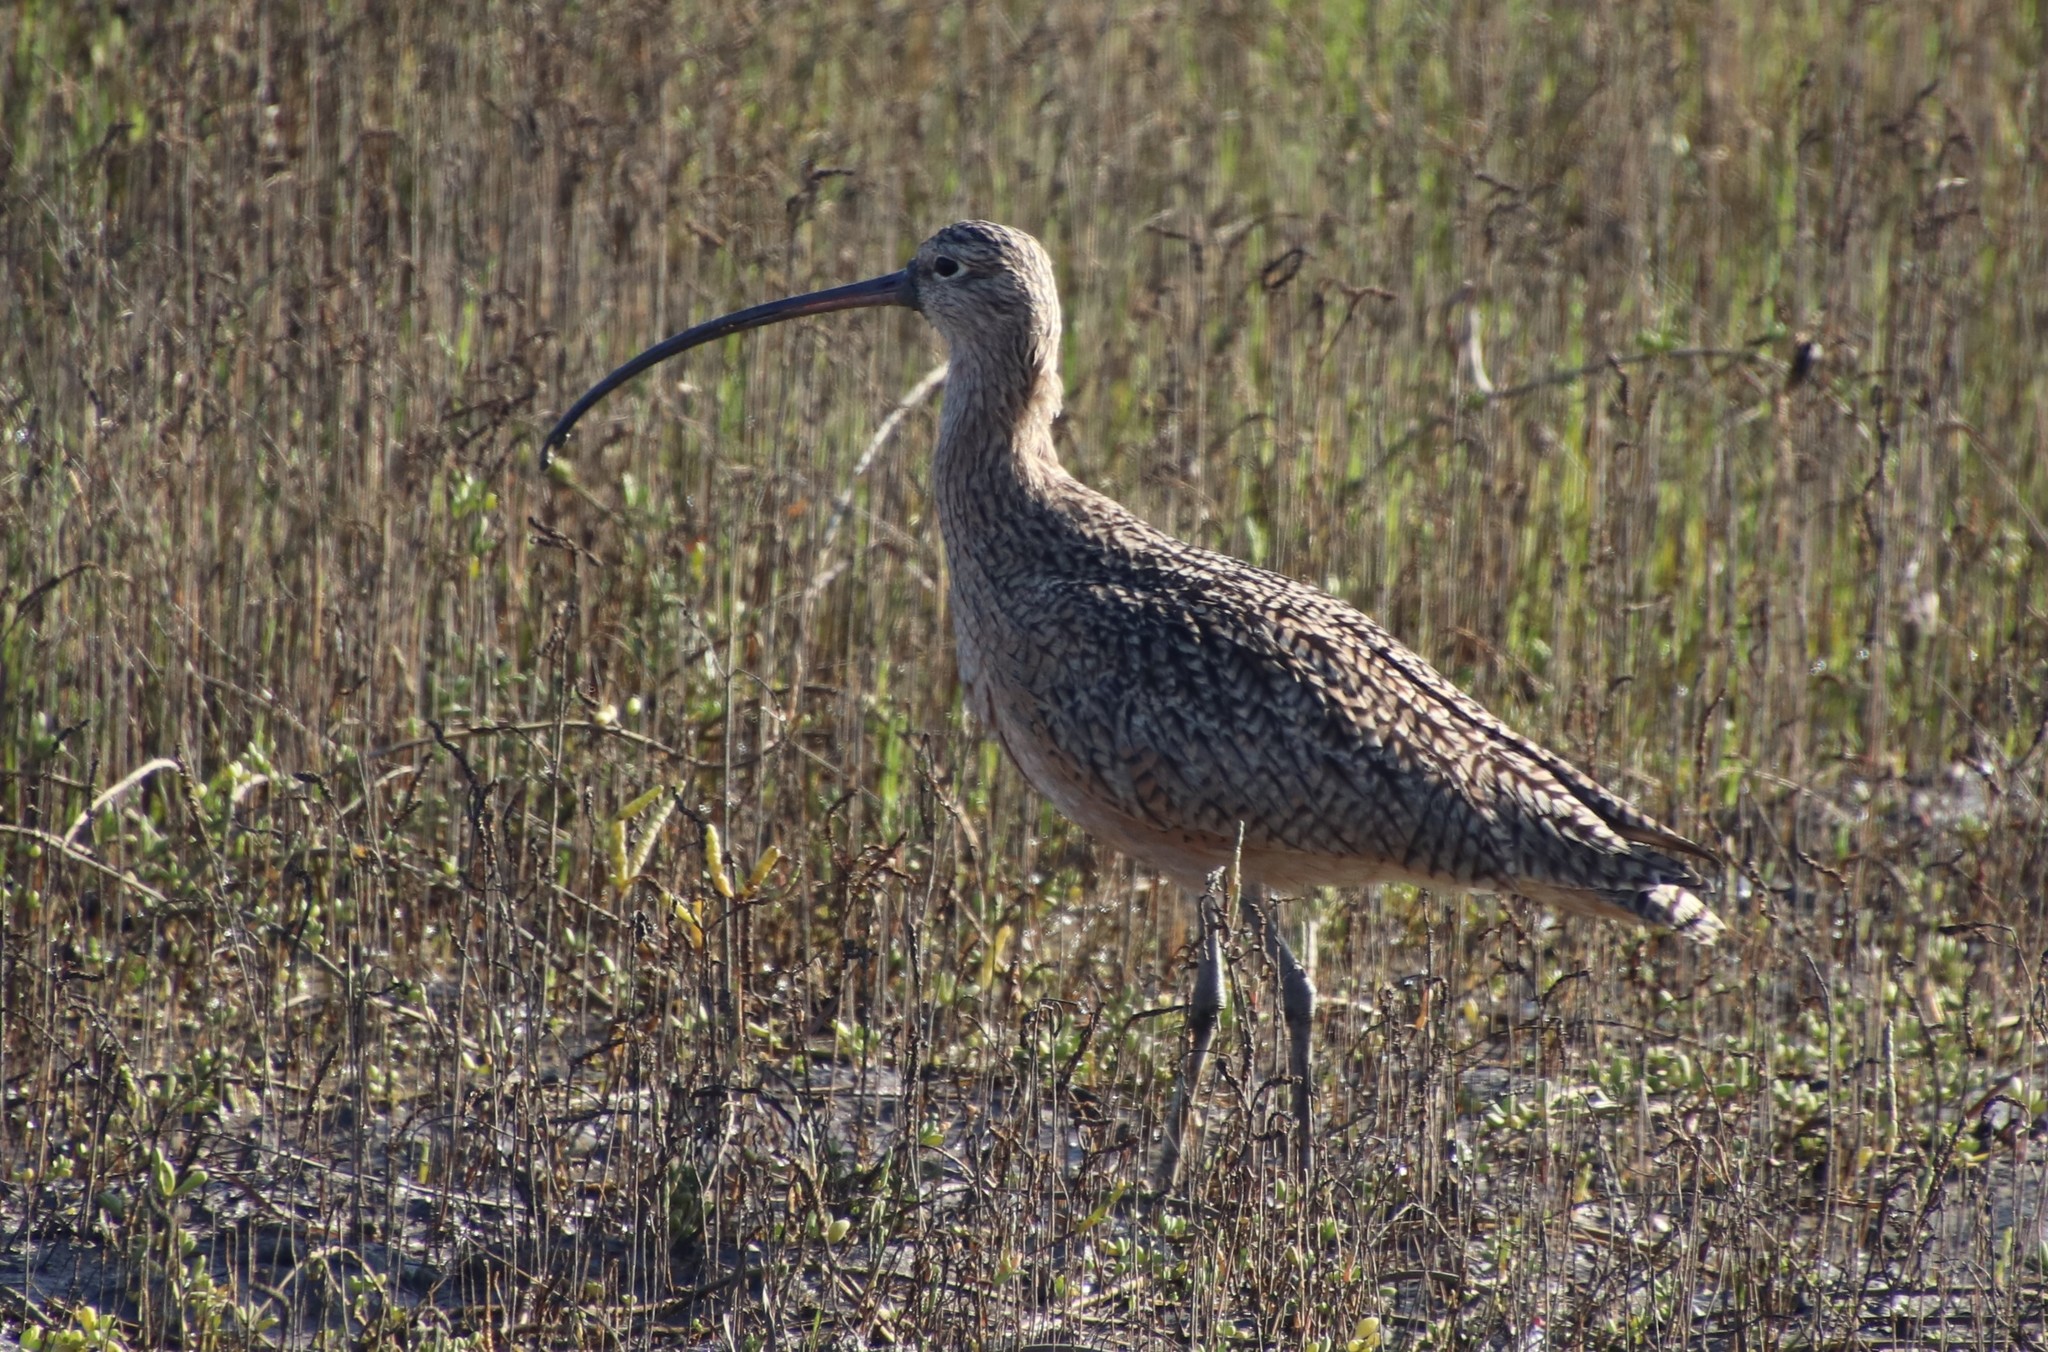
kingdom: Animalia
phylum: Chordata
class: Aves
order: Charadriiformes
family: Scolopacidae
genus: Numenius
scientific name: Numenius americanus
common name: Long-billed curlew
